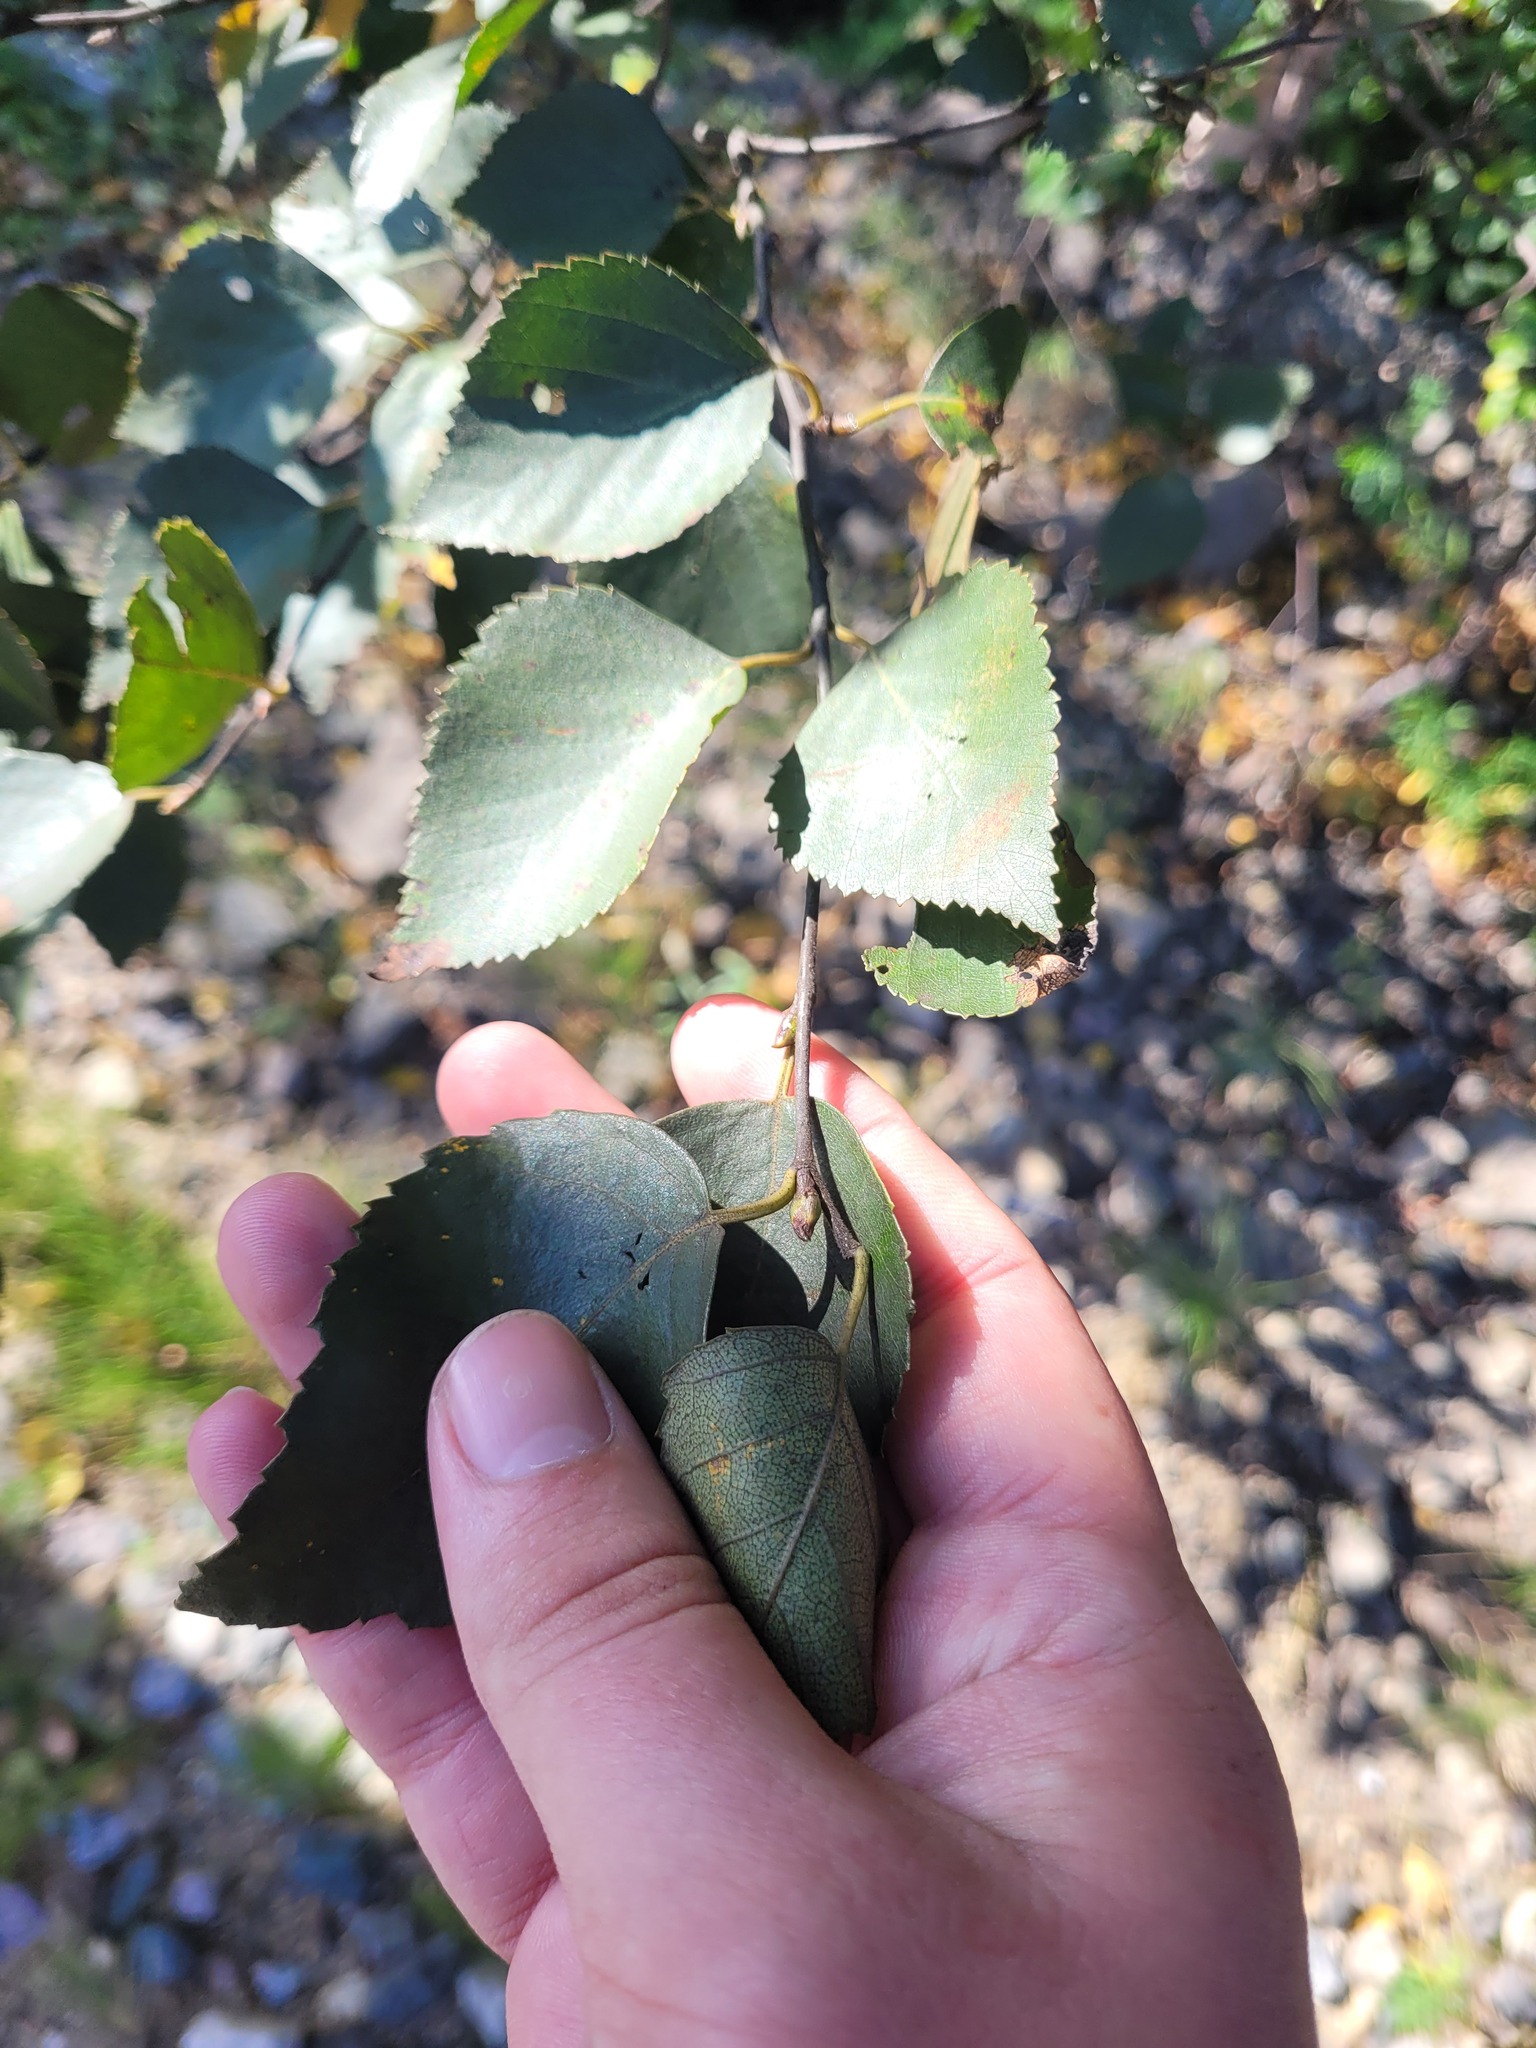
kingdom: Plantae
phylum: Tracheophyta
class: Magnoliopsida
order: Fagales
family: Betulaceae
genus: Betula
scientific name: Betula pendula
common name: Silver birch
